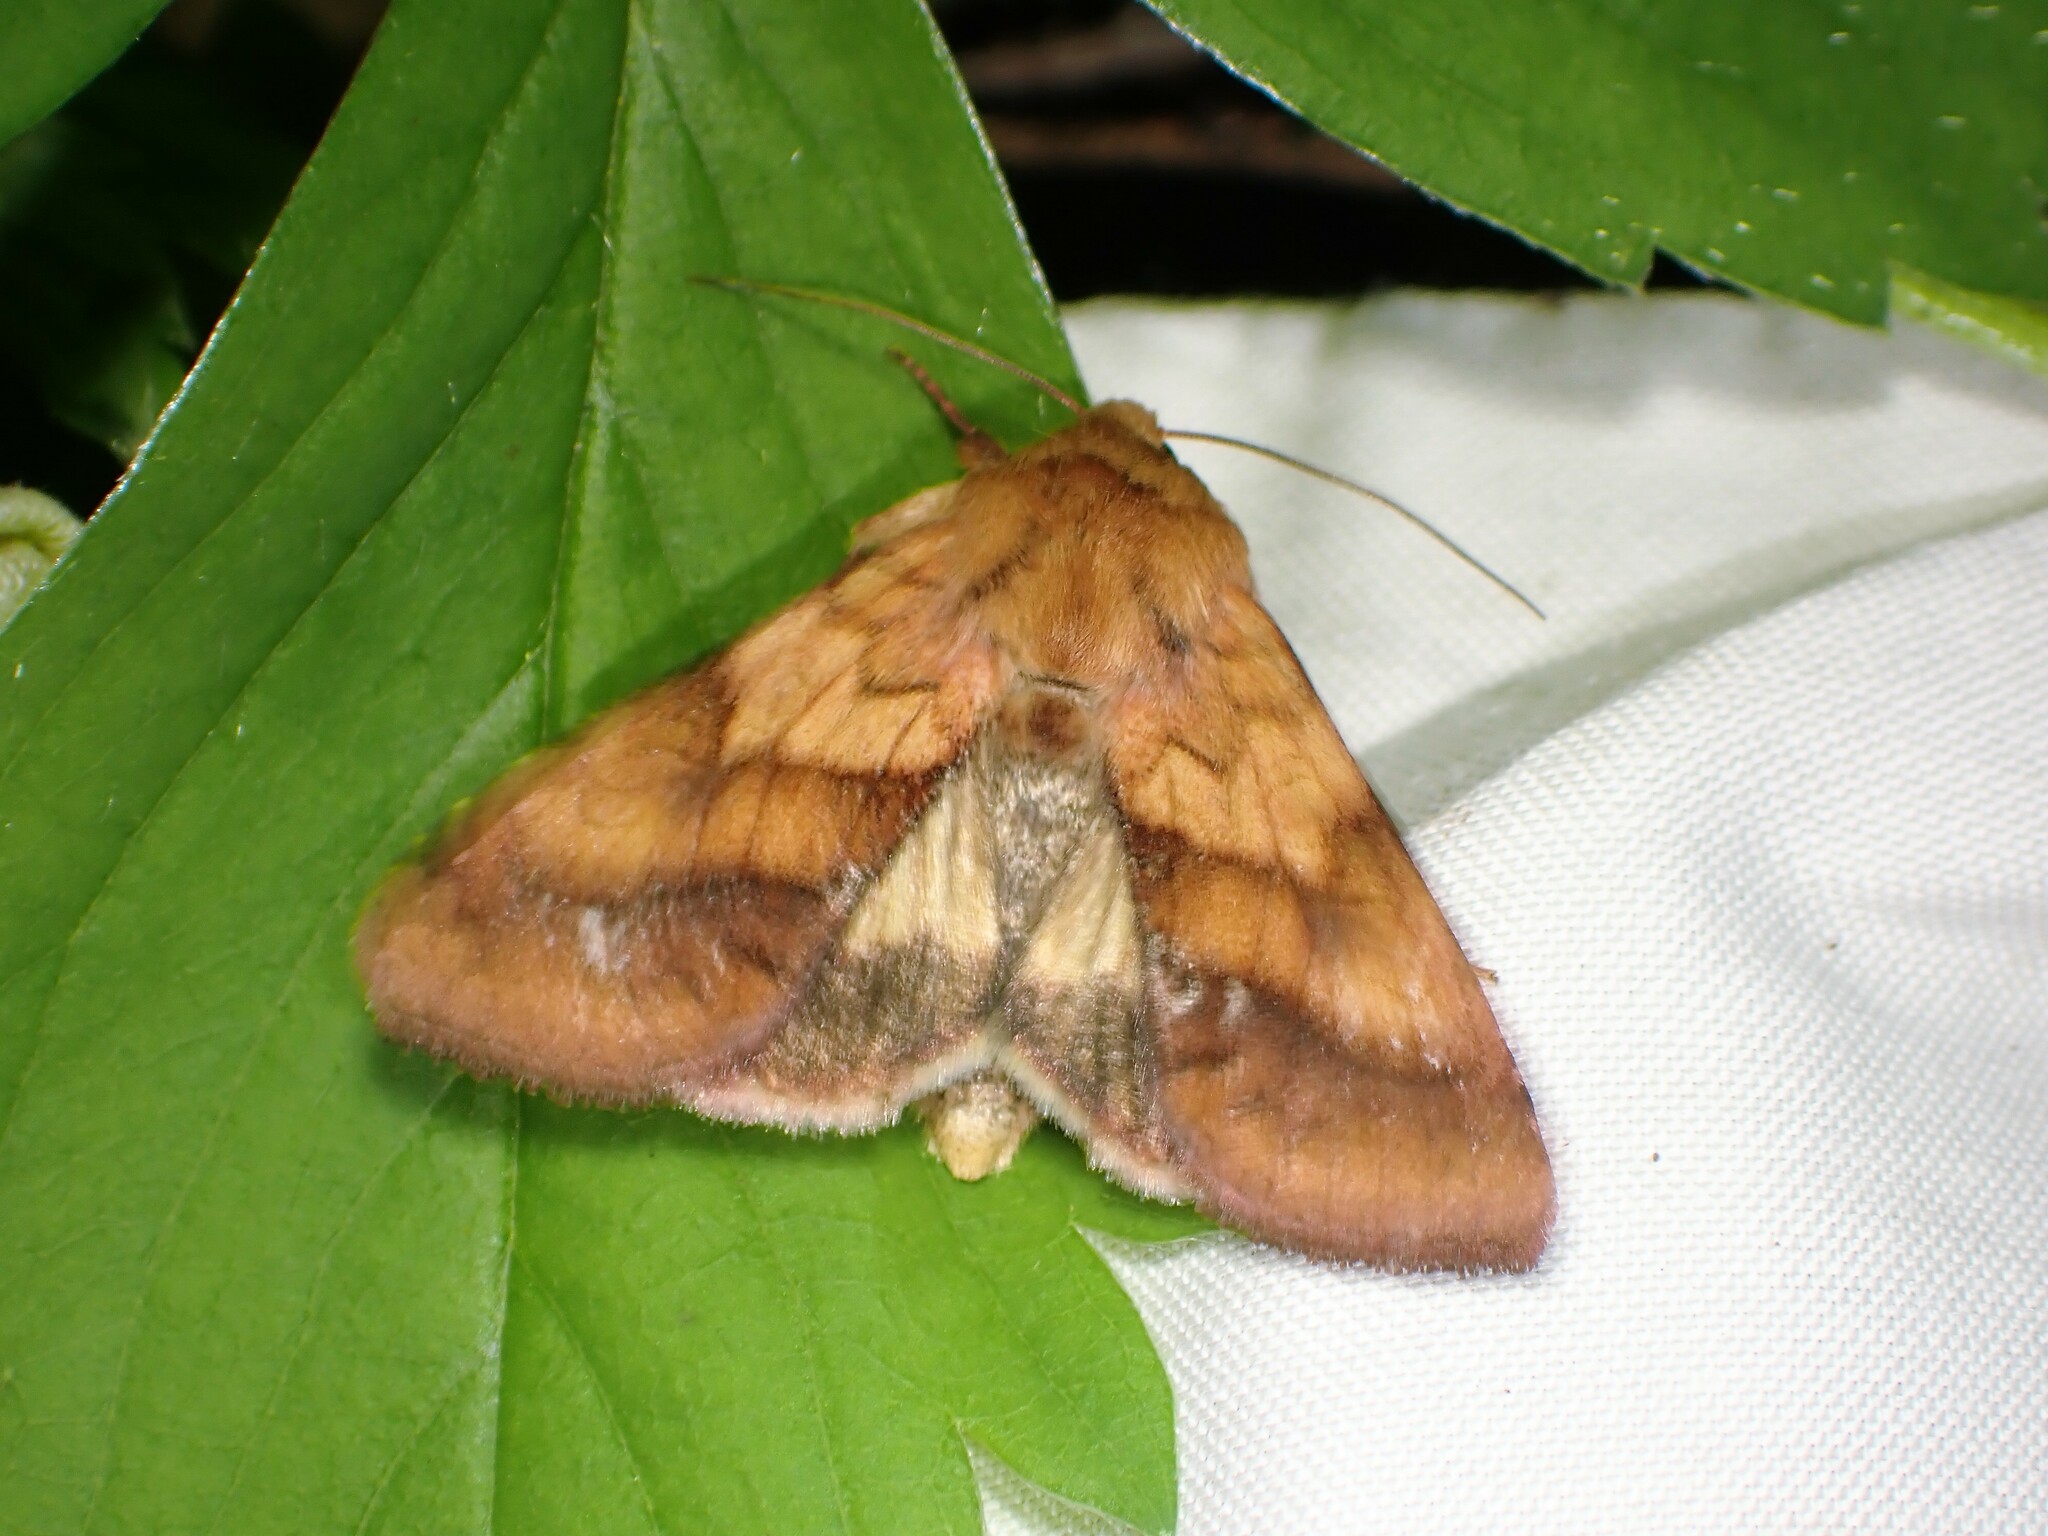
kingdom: Animalia
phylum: Arthropoda
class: Insecta
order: Lepidoptera
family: Noctuidae
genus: Pyrrhia
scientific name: Pyrrhia exprimens
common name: Purple-lined sallow
